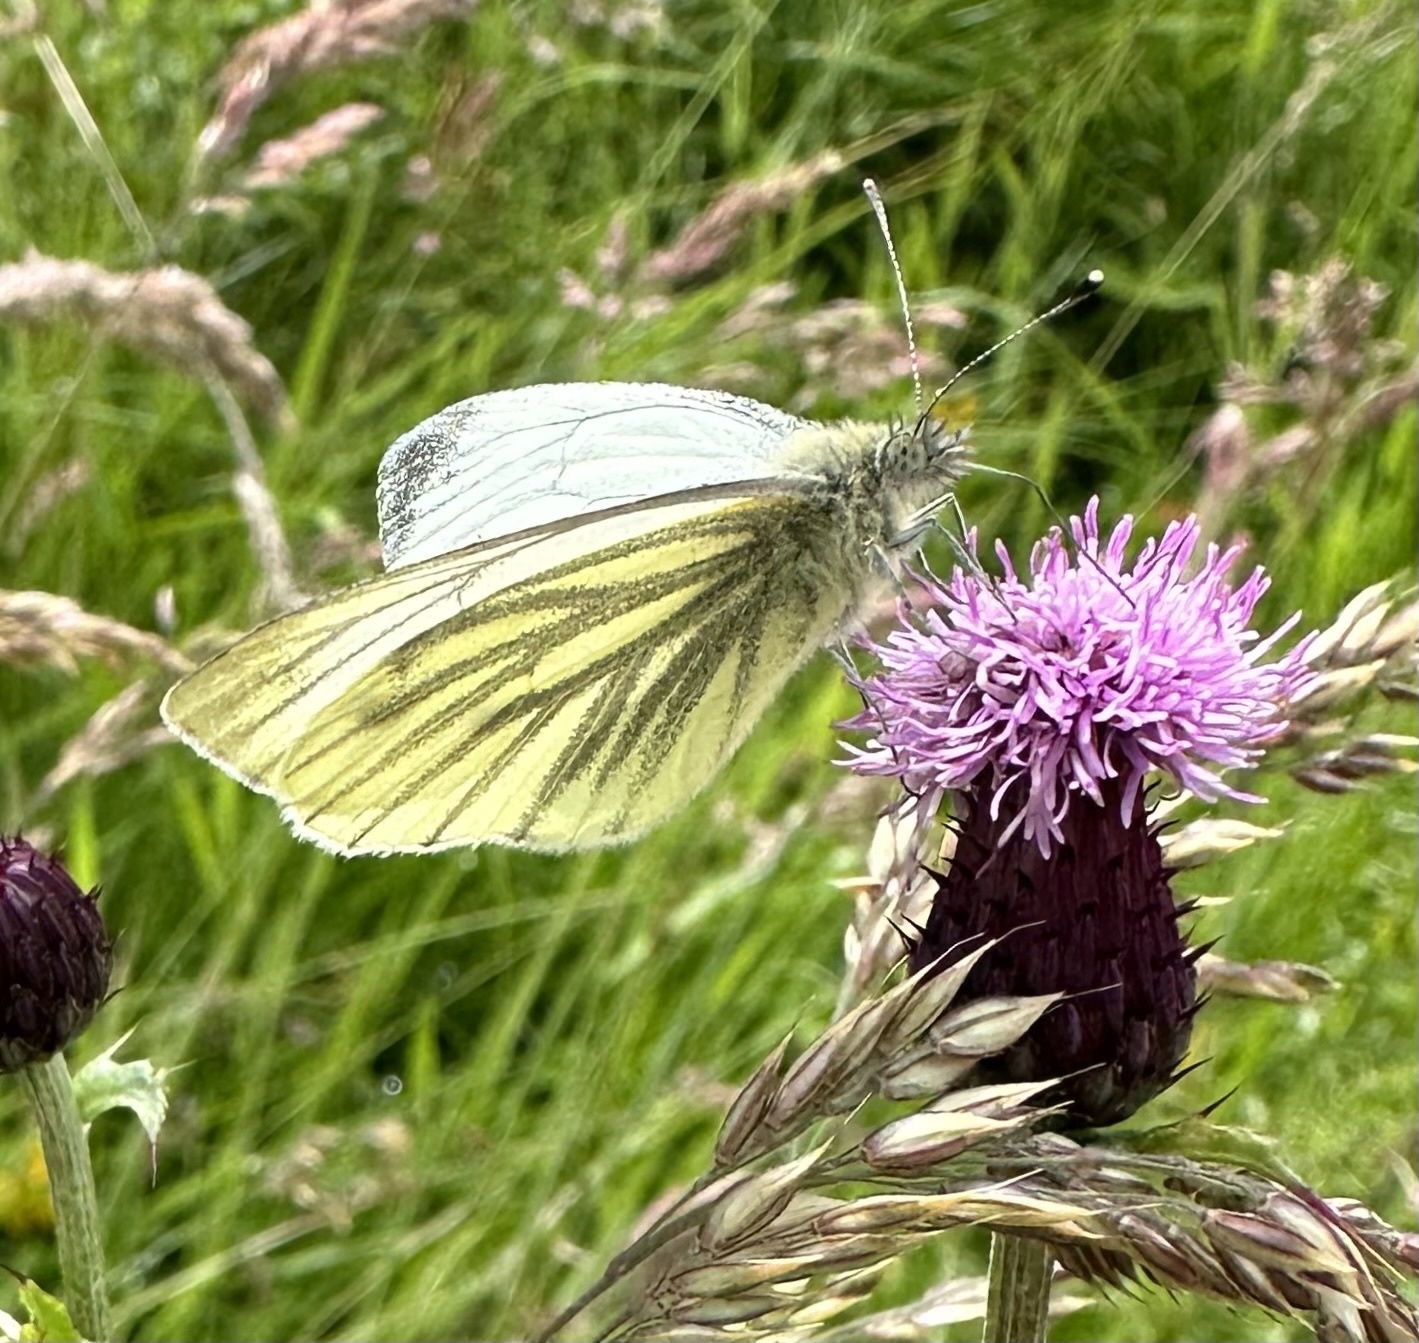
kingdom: Animalia
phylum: Arthropoda
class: Insecta
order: Lepidoptera
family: Pieridae
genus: Pieris
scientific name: Pieris napi
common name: Green-veined white
